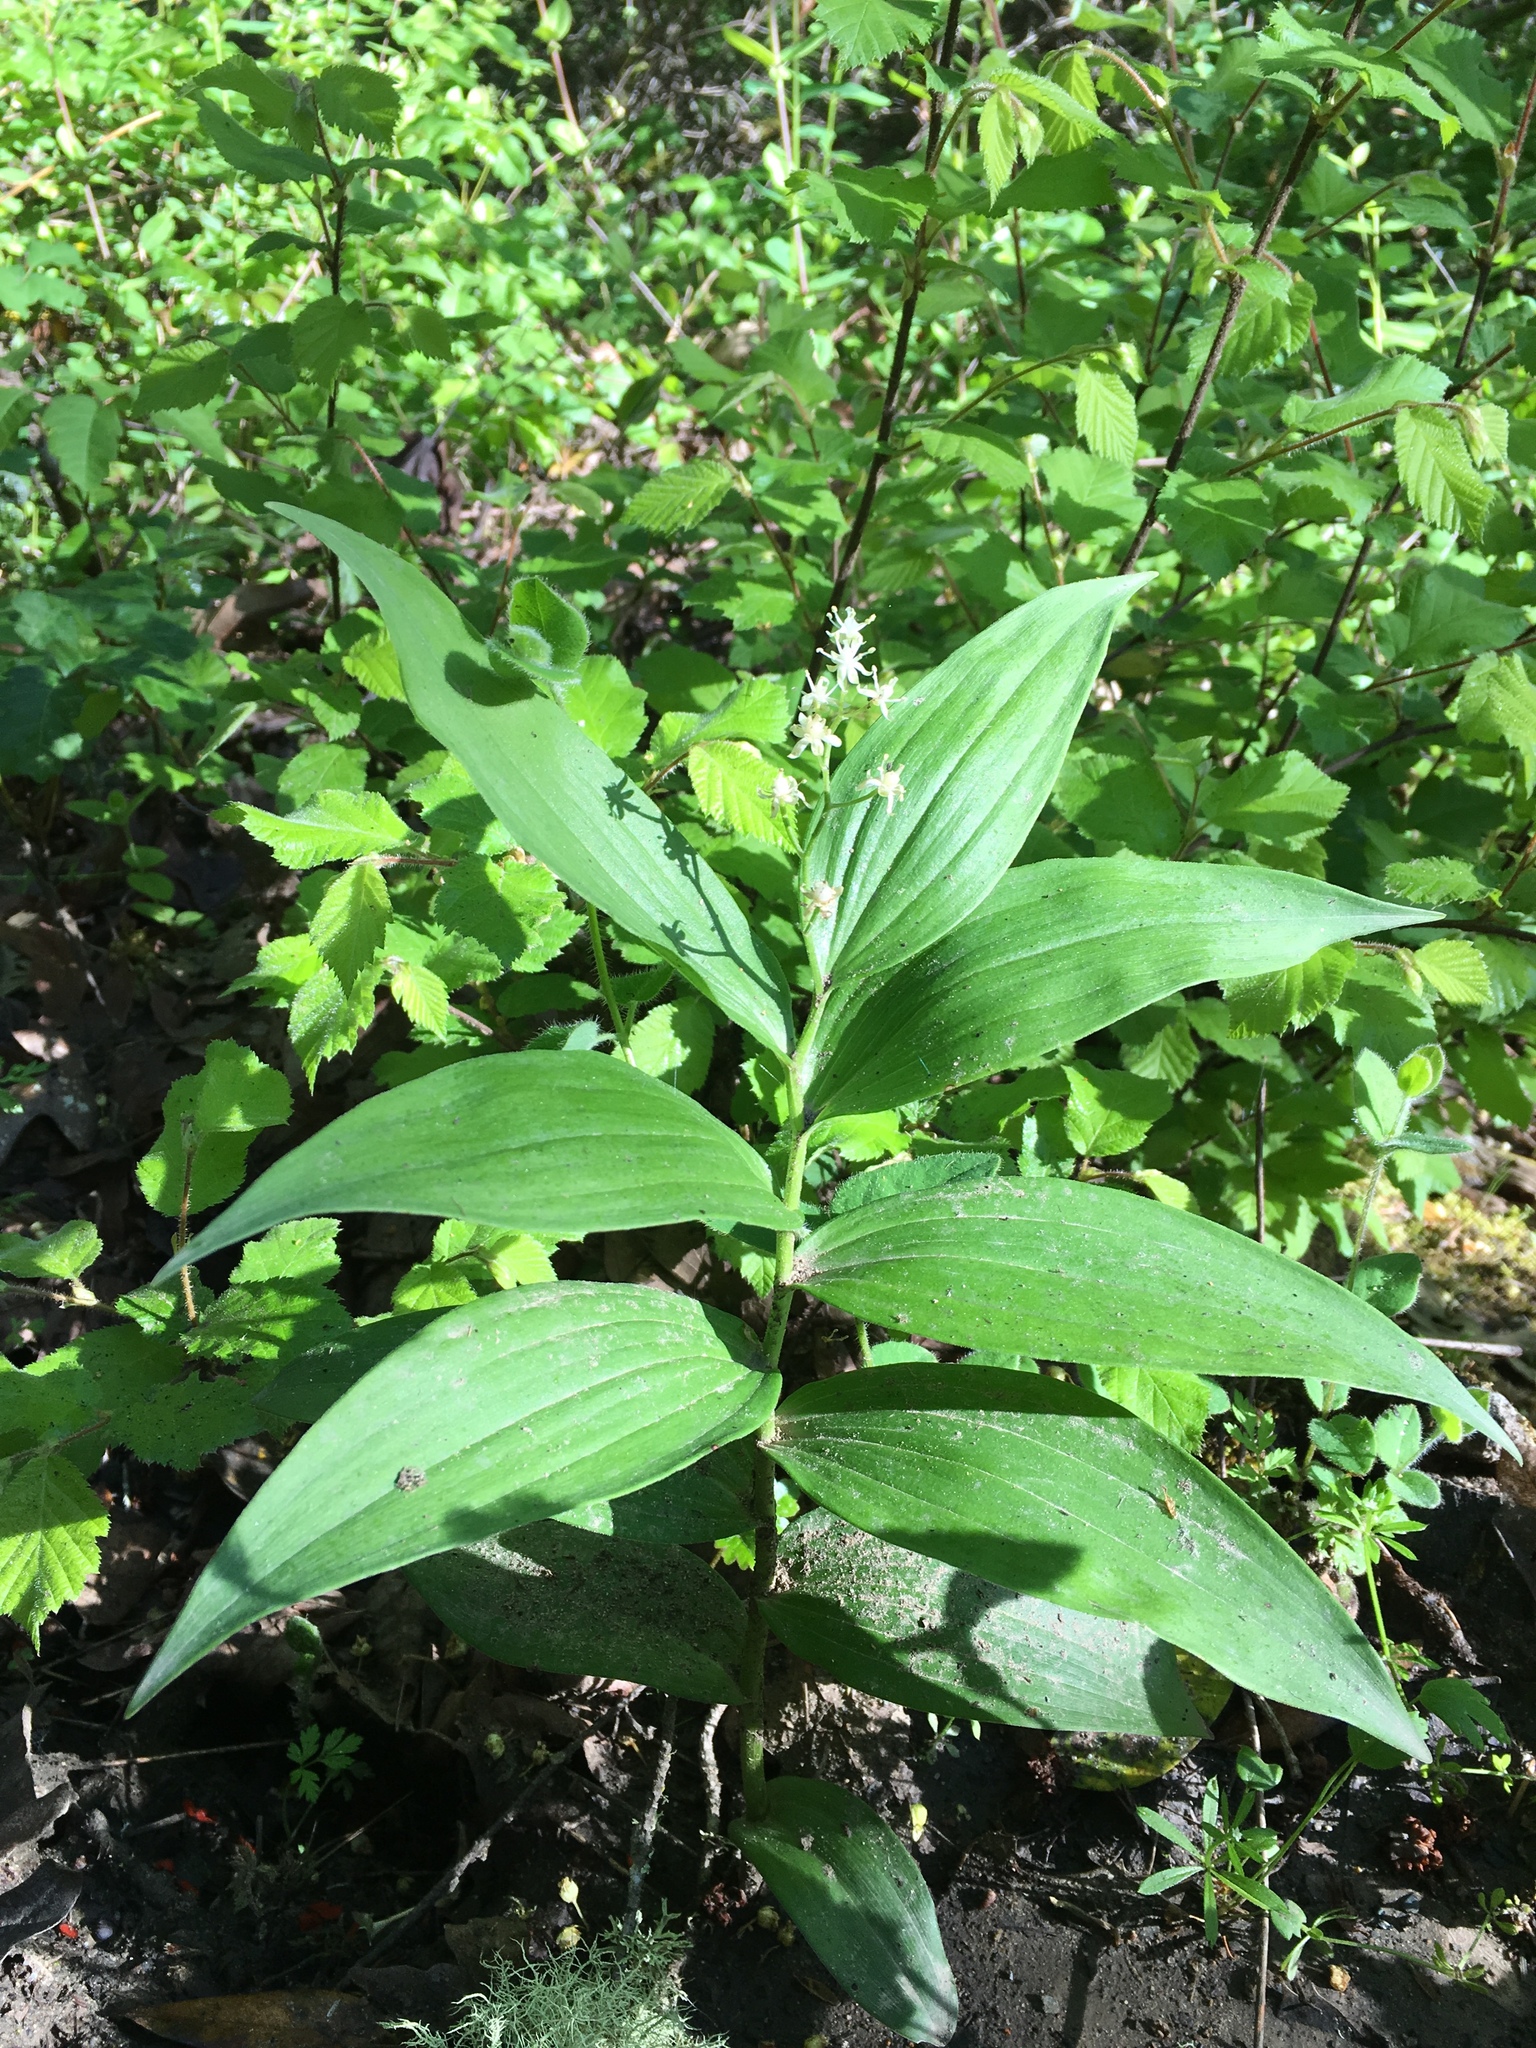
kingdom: Plantae
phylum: Tracheophyta
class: Liliopsida
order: Asparagales
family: Asparagaceae
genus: Maianthemum
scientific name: Maianthemum stellatum
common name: Little false solomon's seal
